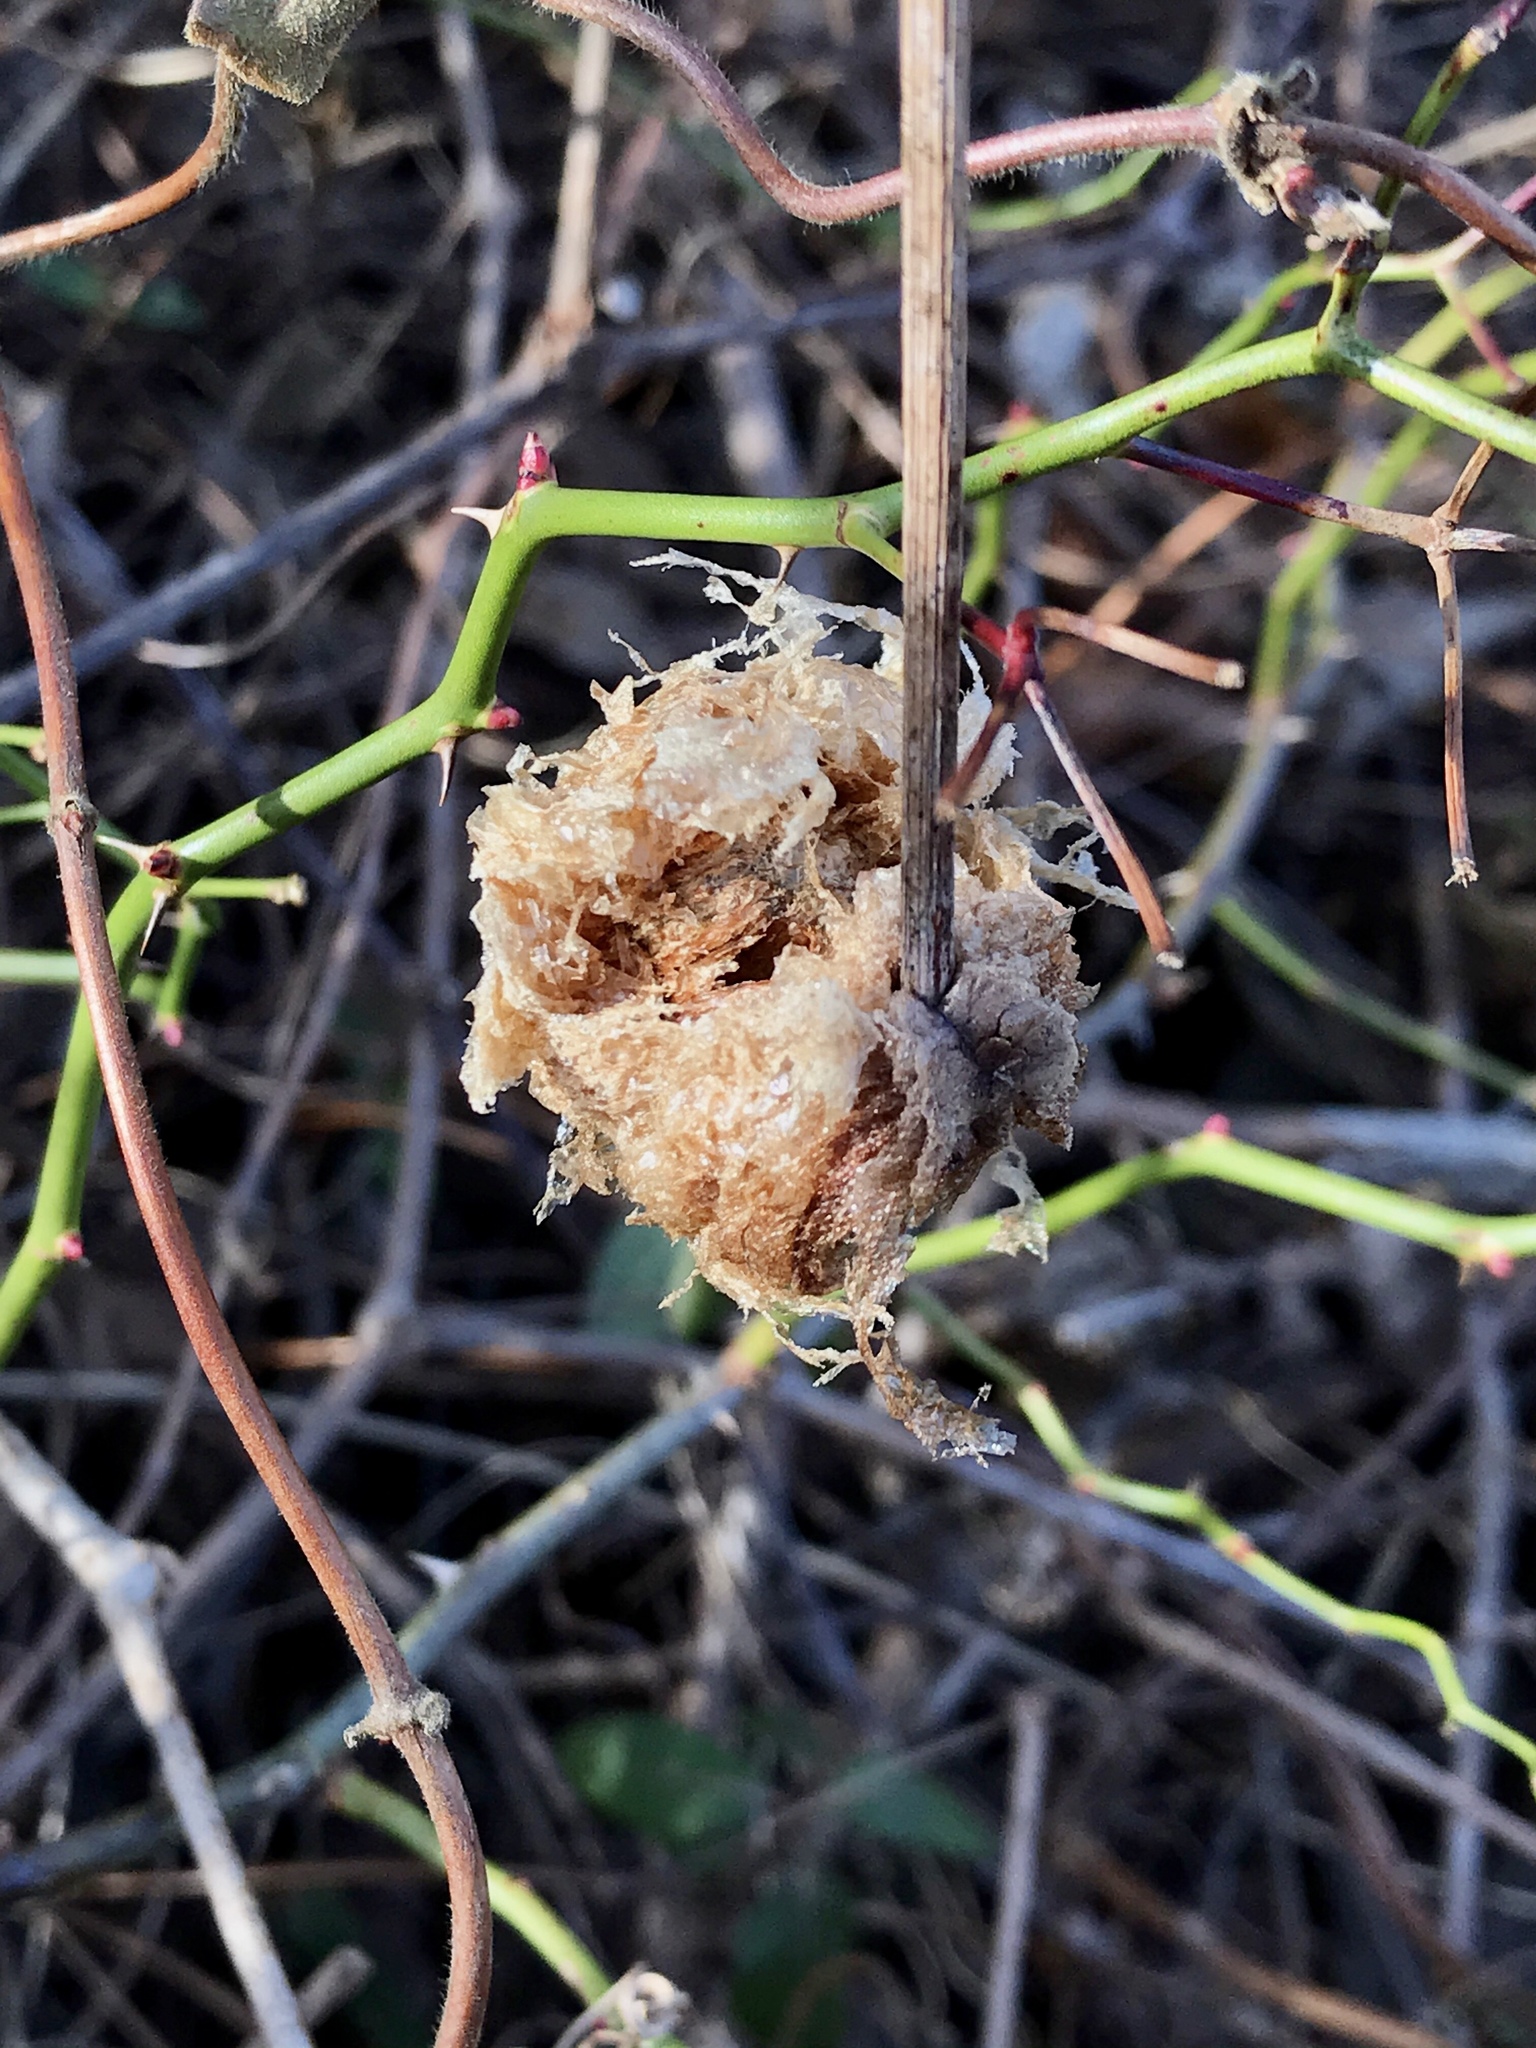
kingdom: Animalia
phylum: Arthropoda
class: Insecta
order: Mantodea
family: Mantidae
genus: Tenodera
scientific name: Tenodera sinensis
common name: Chinese mantis
